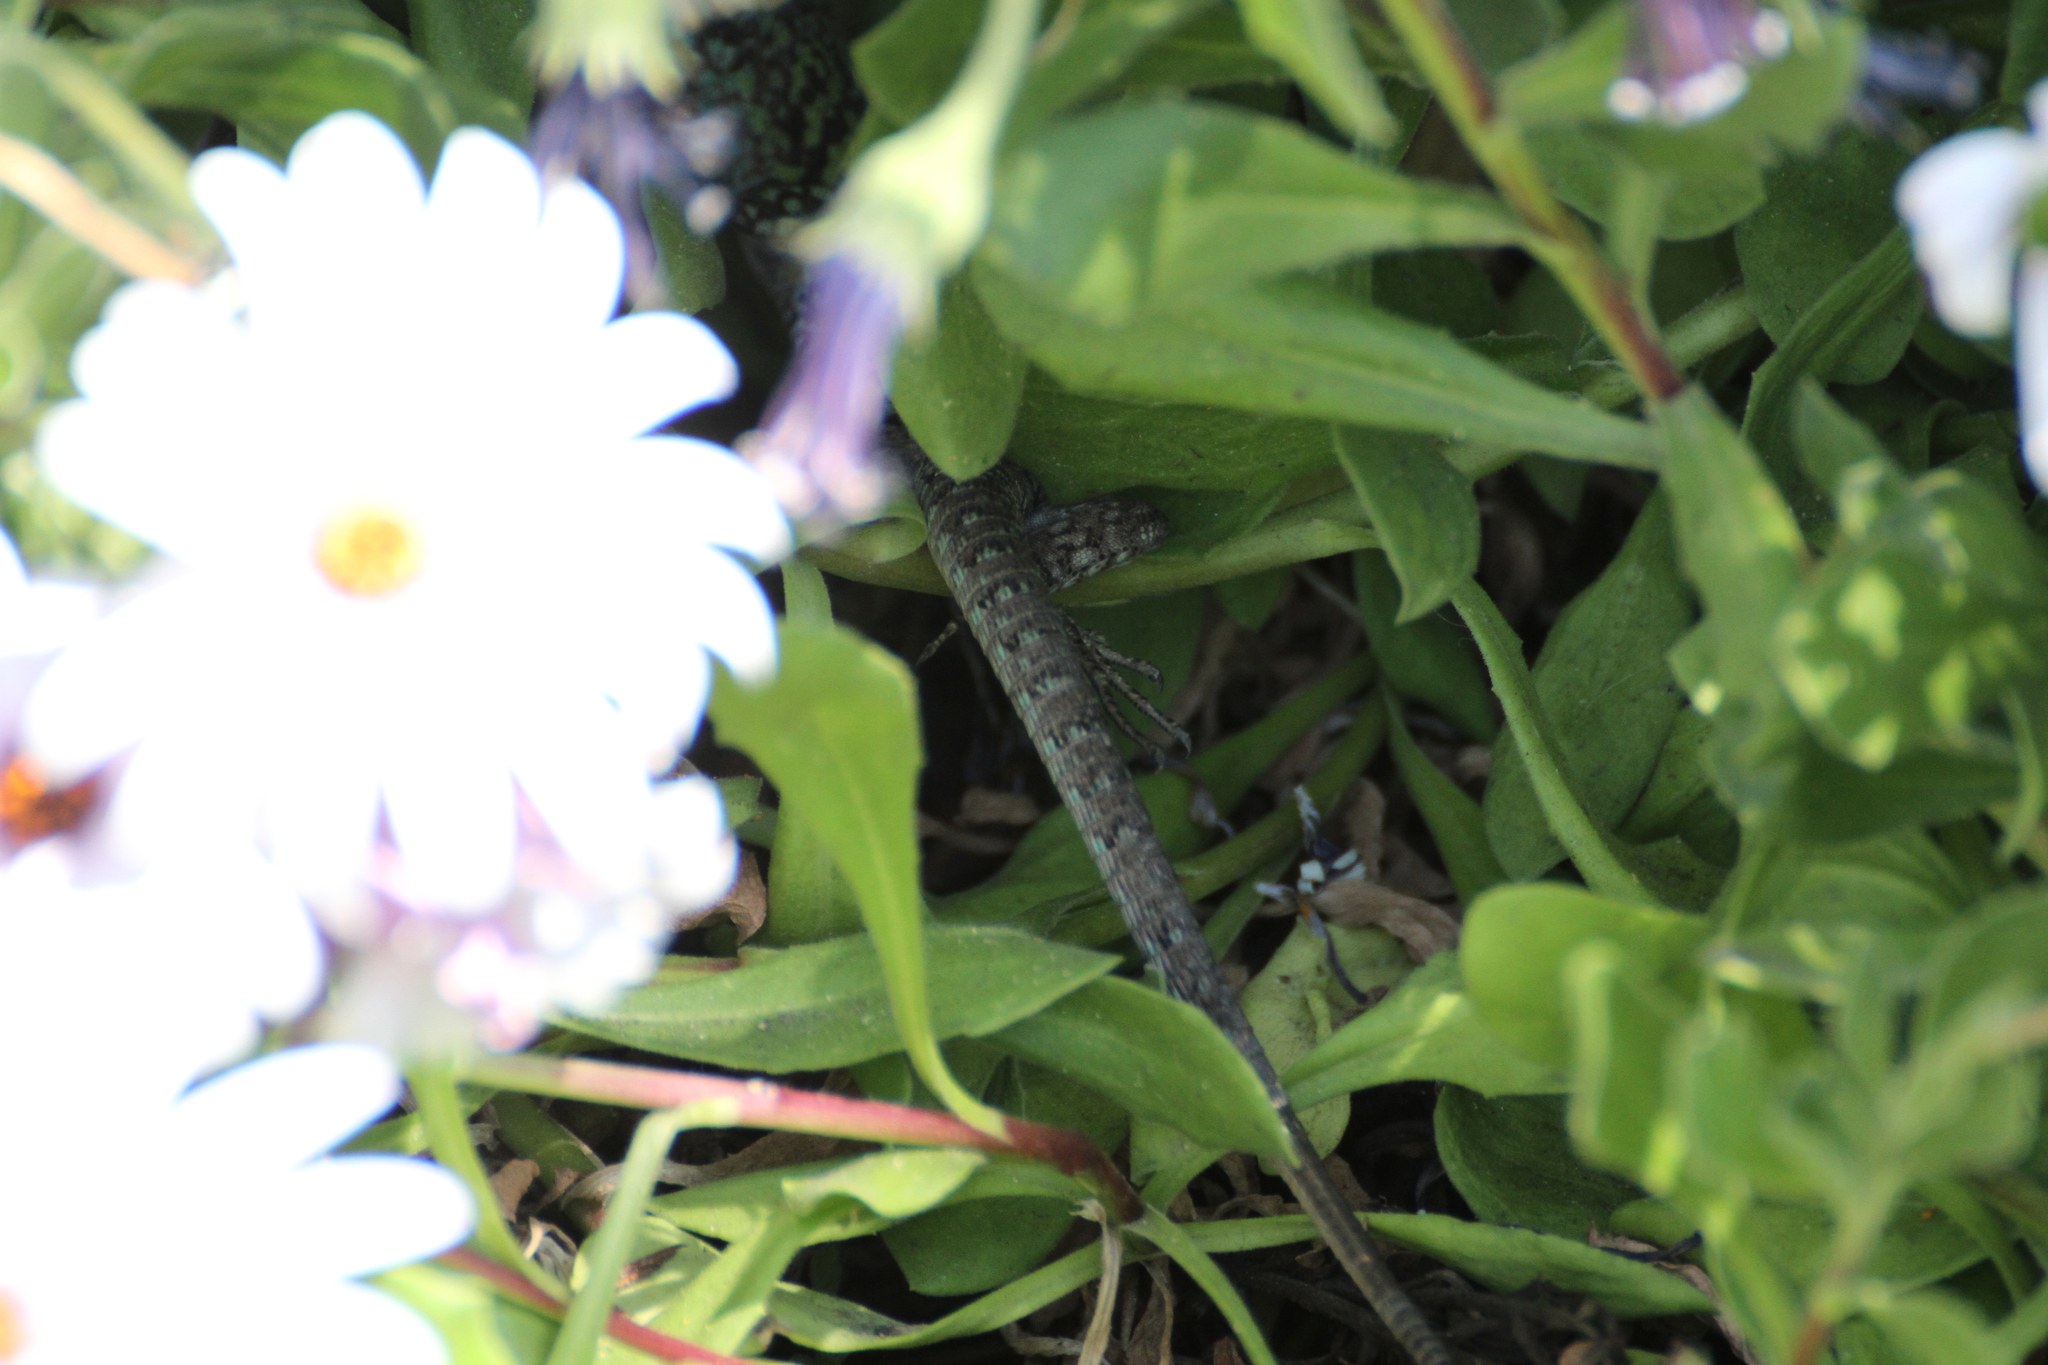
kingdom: Animalia
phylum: Chordata
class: Squamata
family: Lacertidae
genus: Podarcis
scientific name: Podarcis siculus
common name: Italian wall lizard
